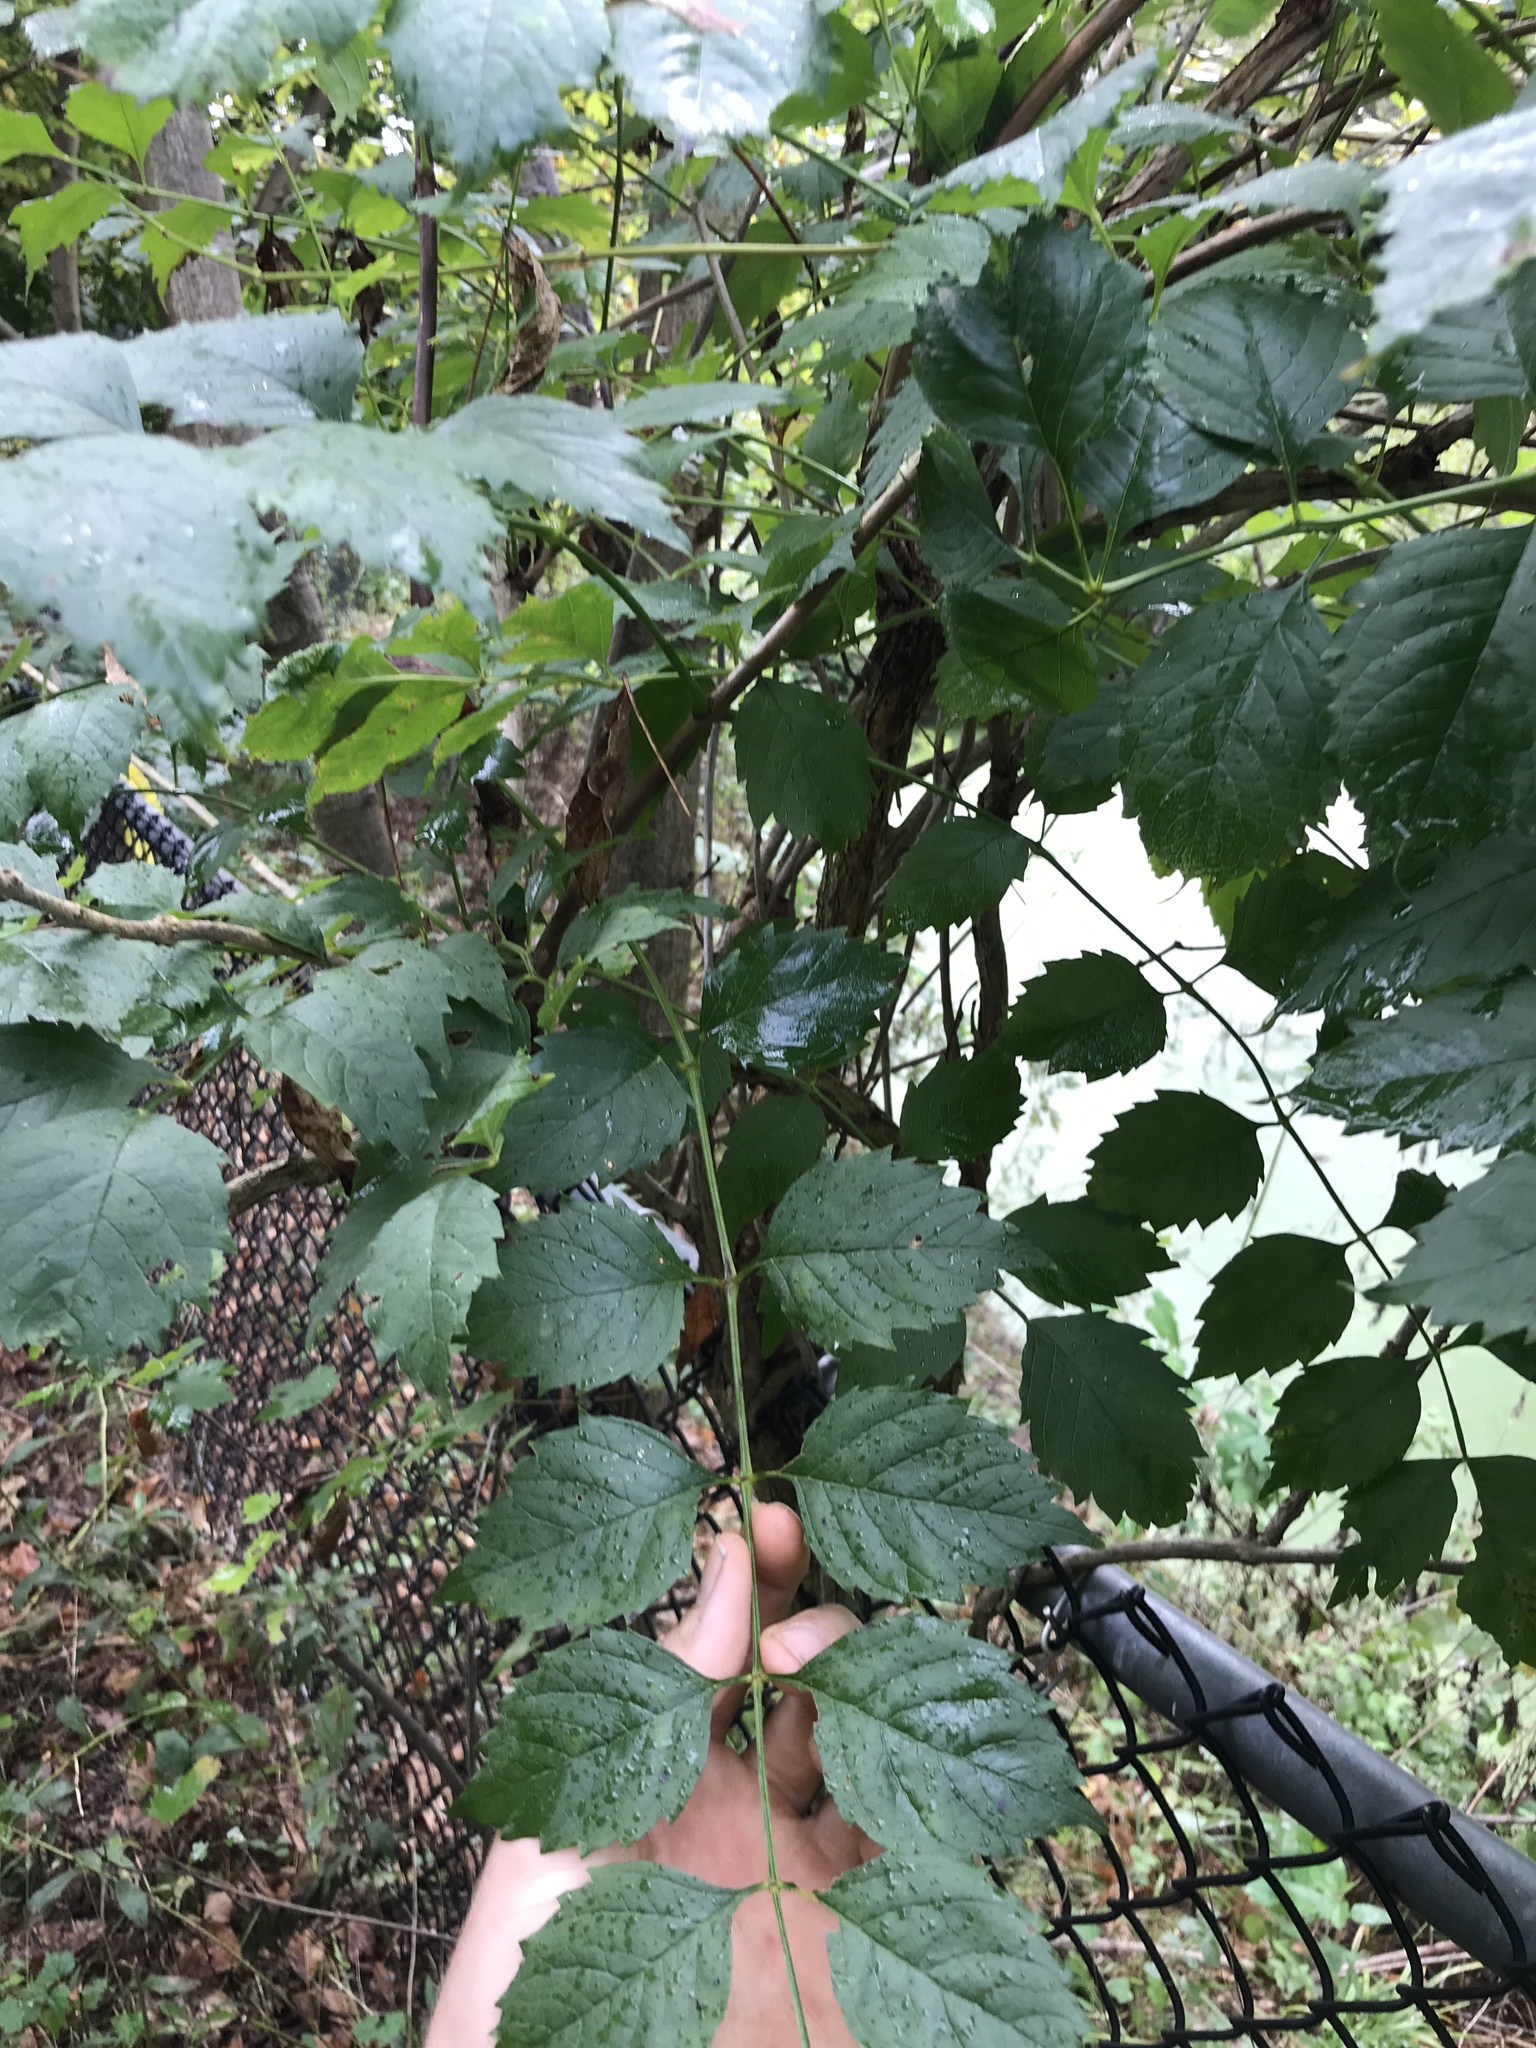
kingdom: Plantae
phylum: Tracheophyta
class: Magnoliopsida
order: Lamiales
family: Bignoniaceae
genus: Campsis
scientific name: Campsis radicans
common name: Trumpet-creeper
